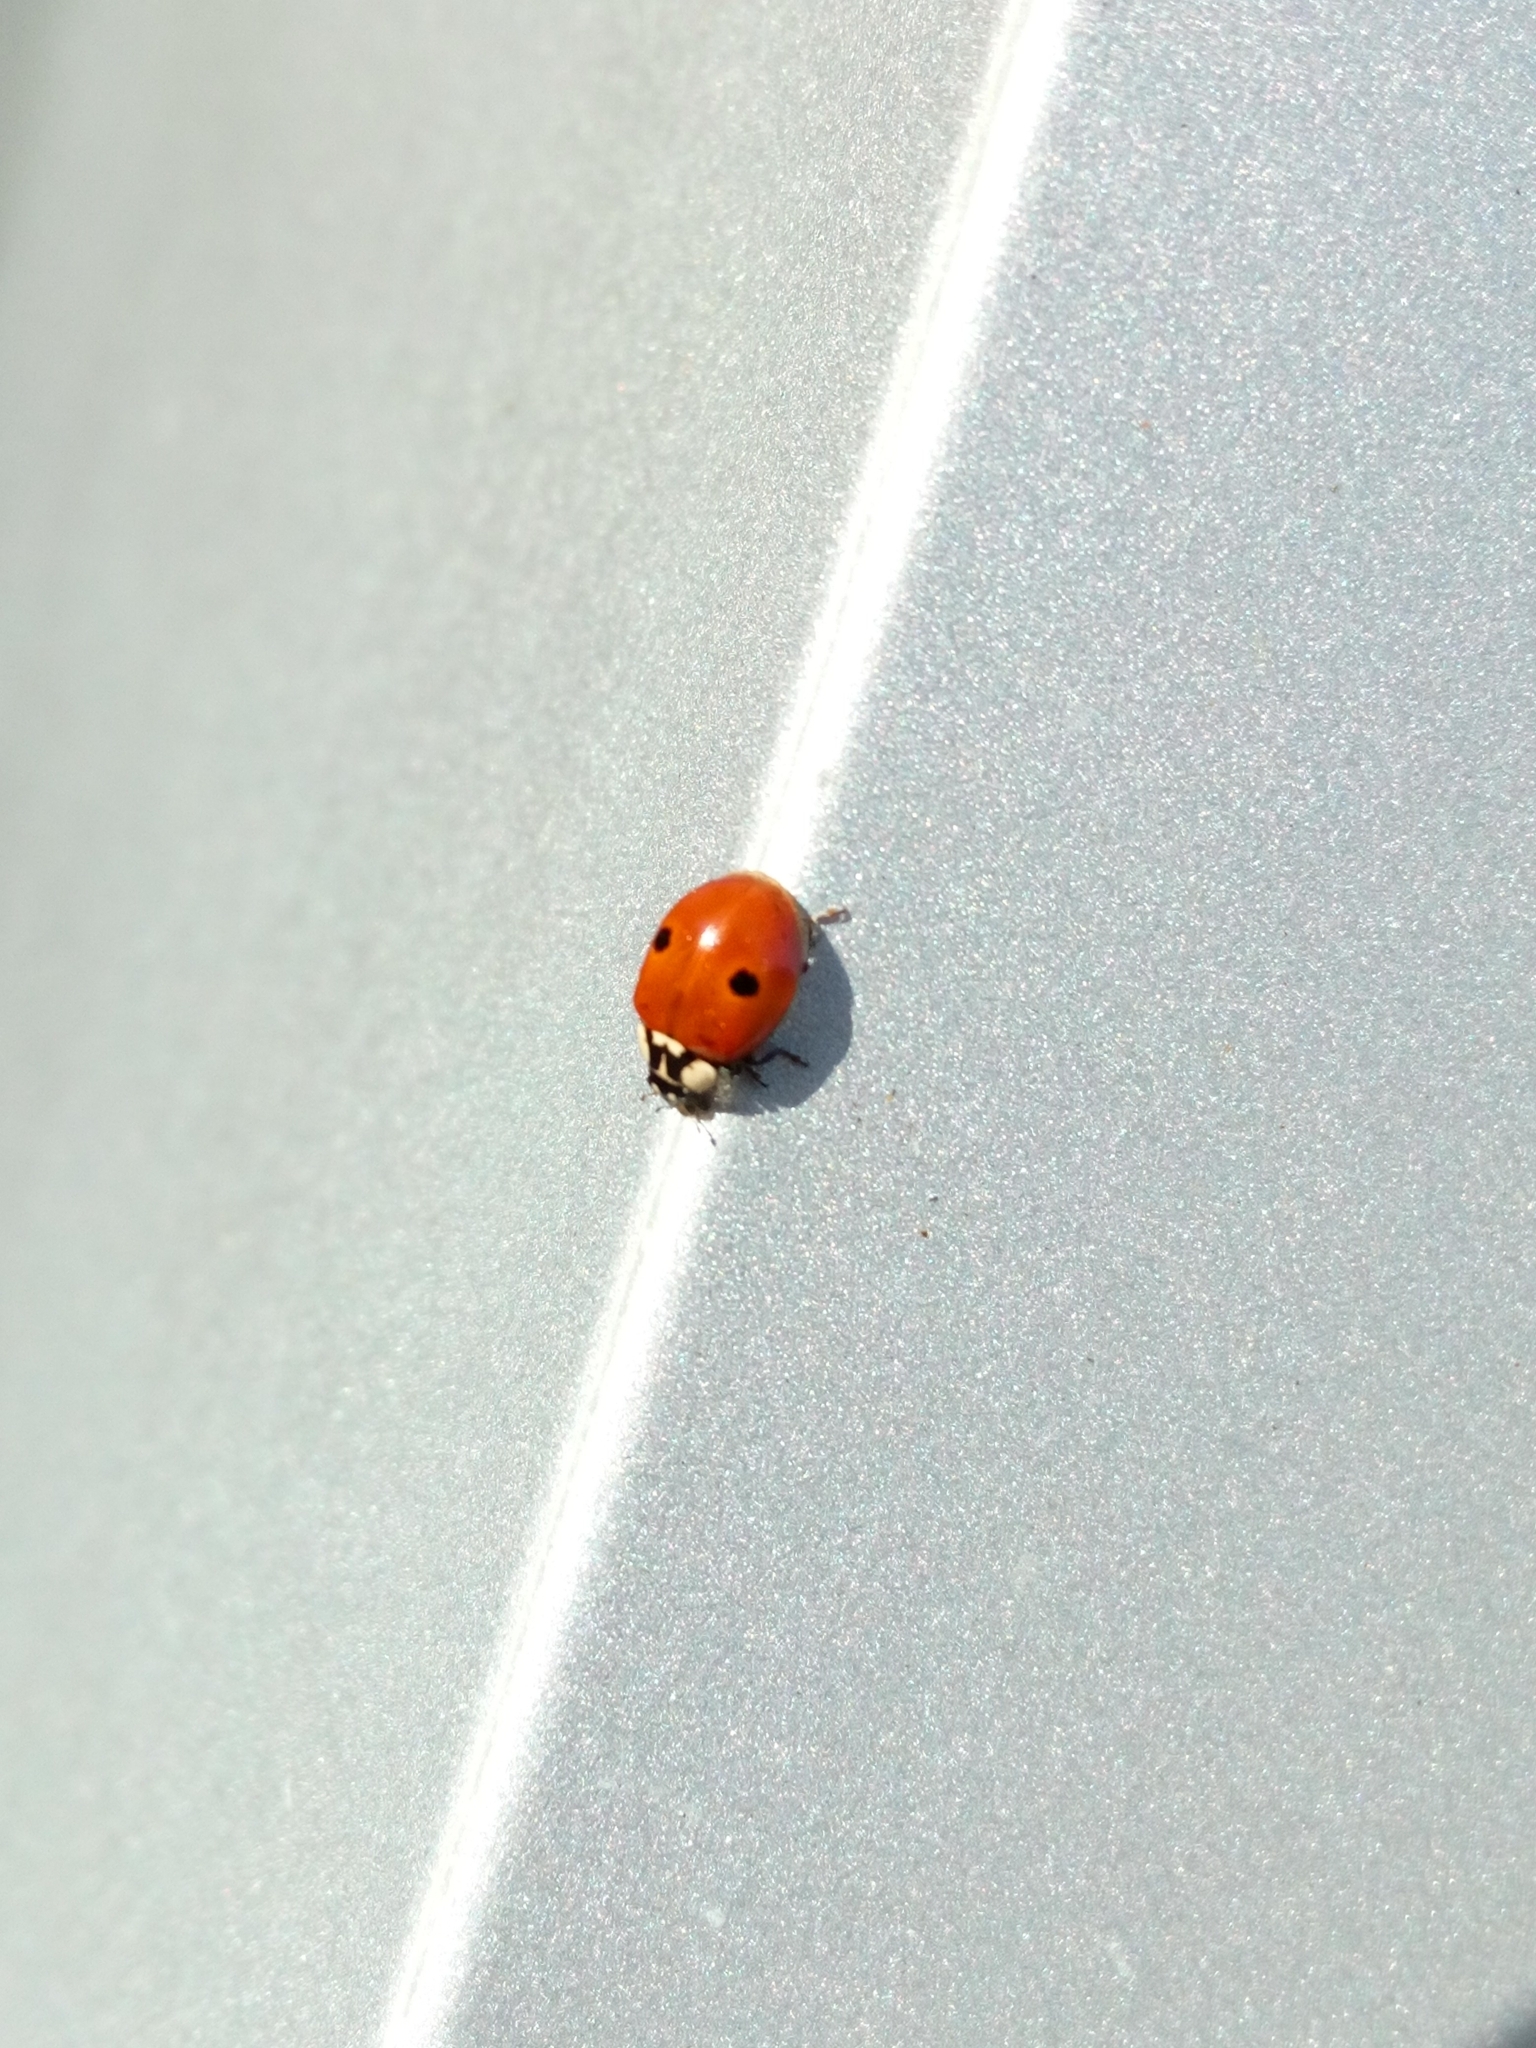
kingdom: Animalia
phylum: Arthropoda
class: Insecta
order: Coleoptera
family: Coccinellidae
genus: Adalia
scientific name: Adalia bipunctata
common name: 2-spot ladybird
